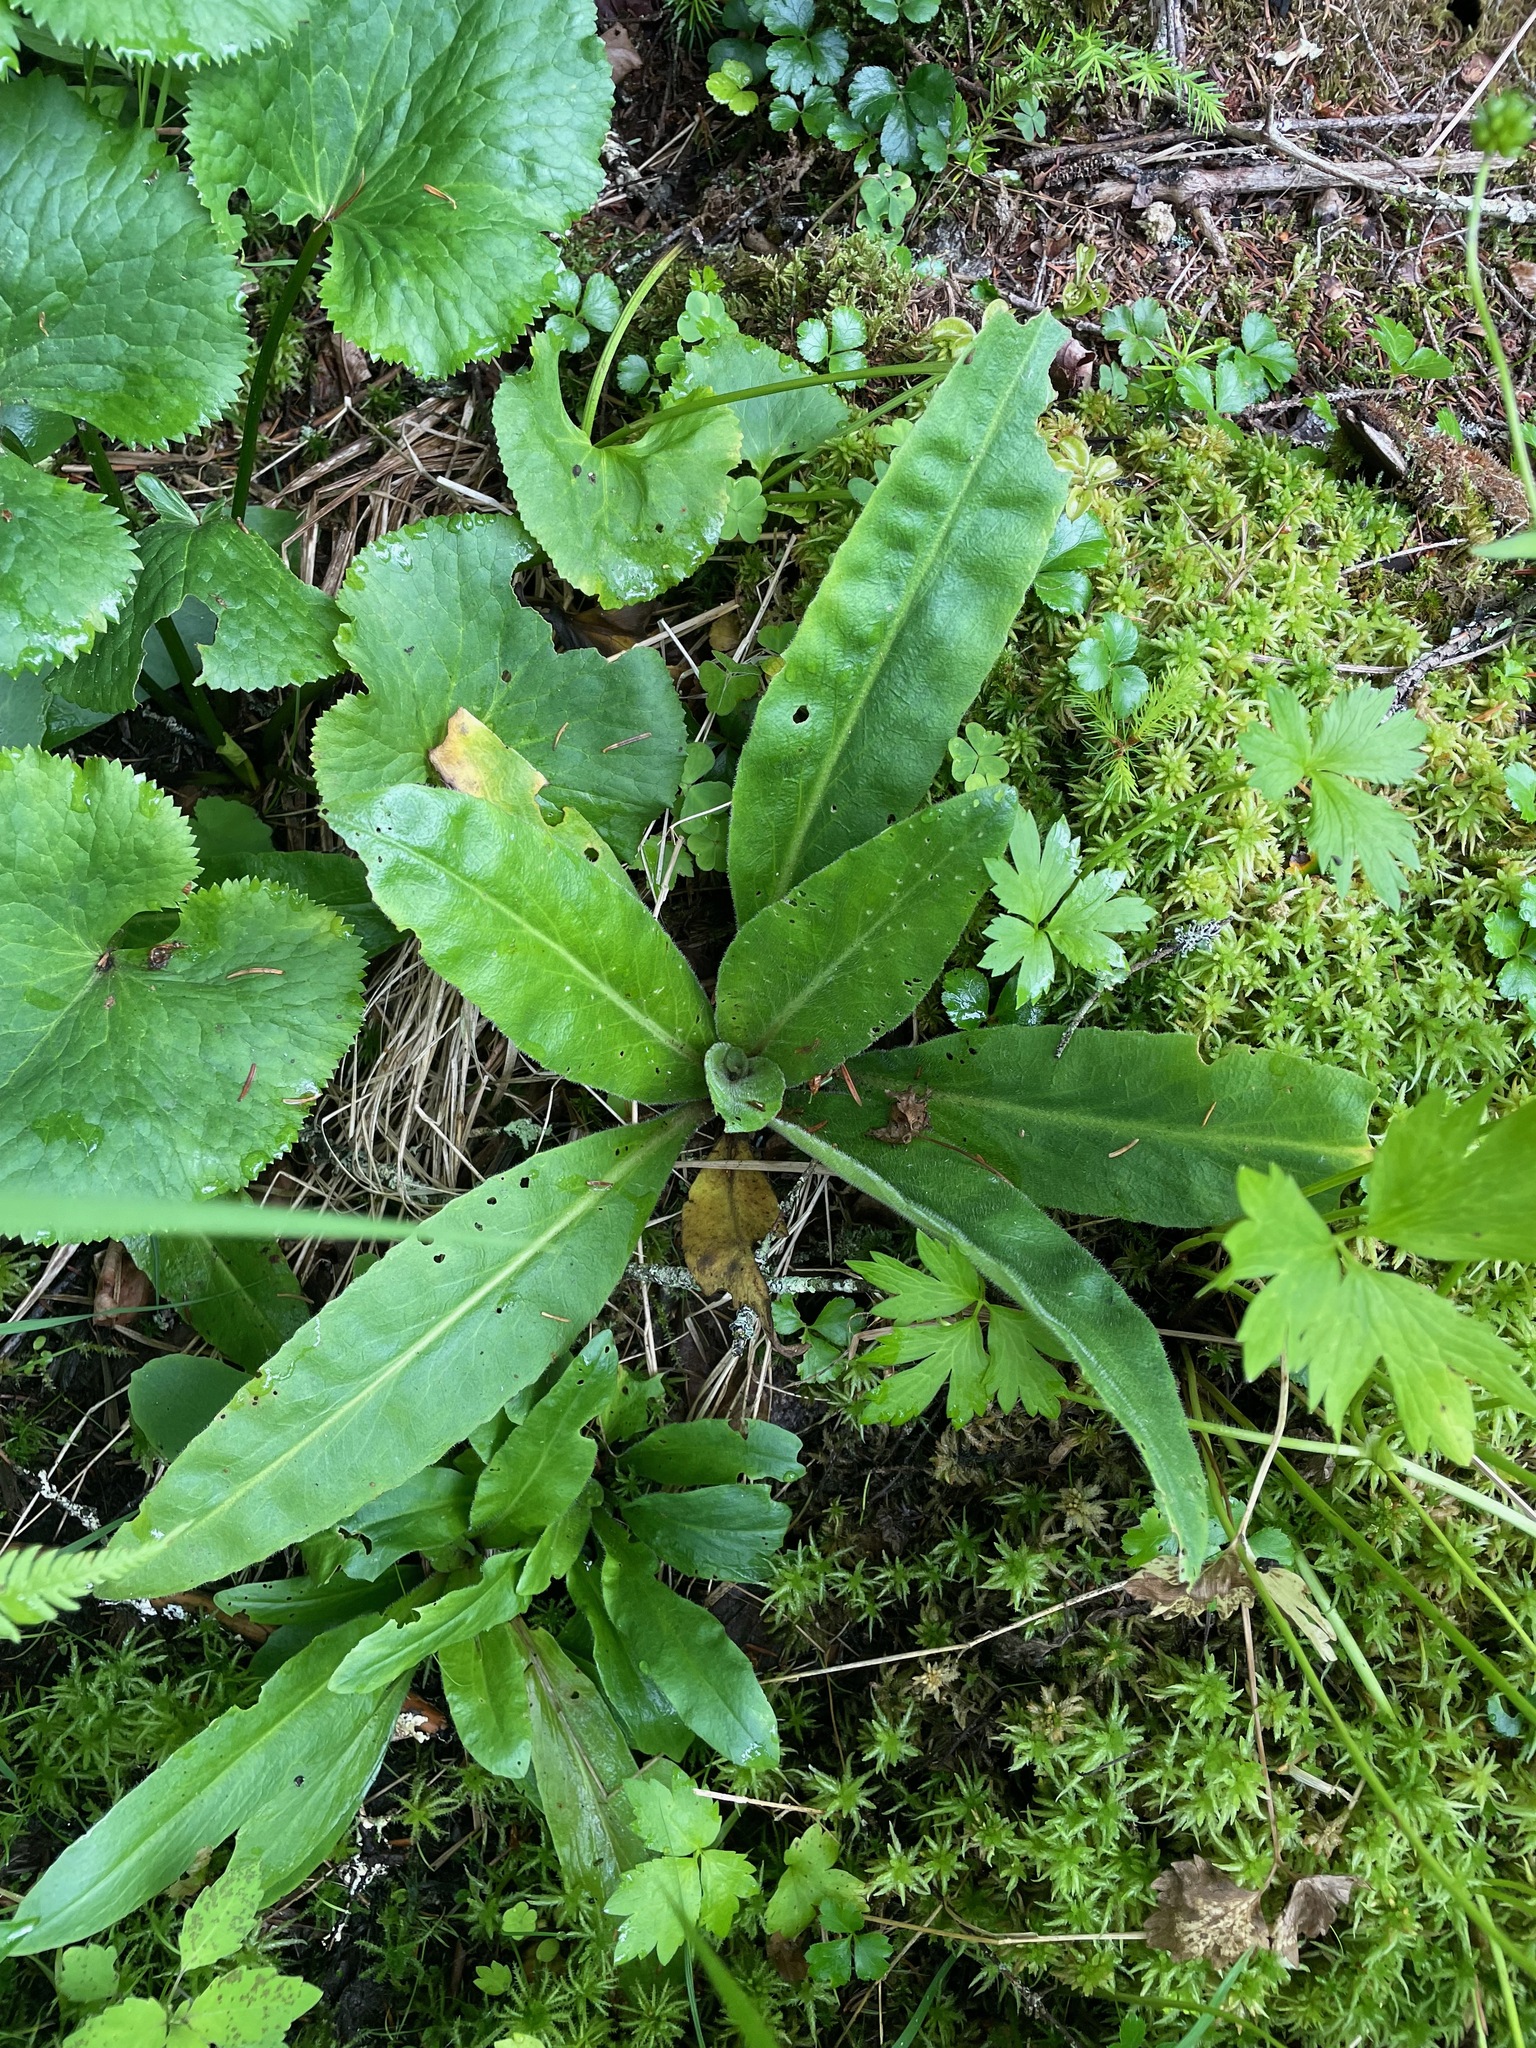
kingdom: Plantae
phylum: Tracheophyta
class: Magnoliopsida
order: Saxifragales
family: Saxifragaceae
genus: Micranthes
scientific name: Micranthes pensylvanica
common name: Marsh saxifrage
